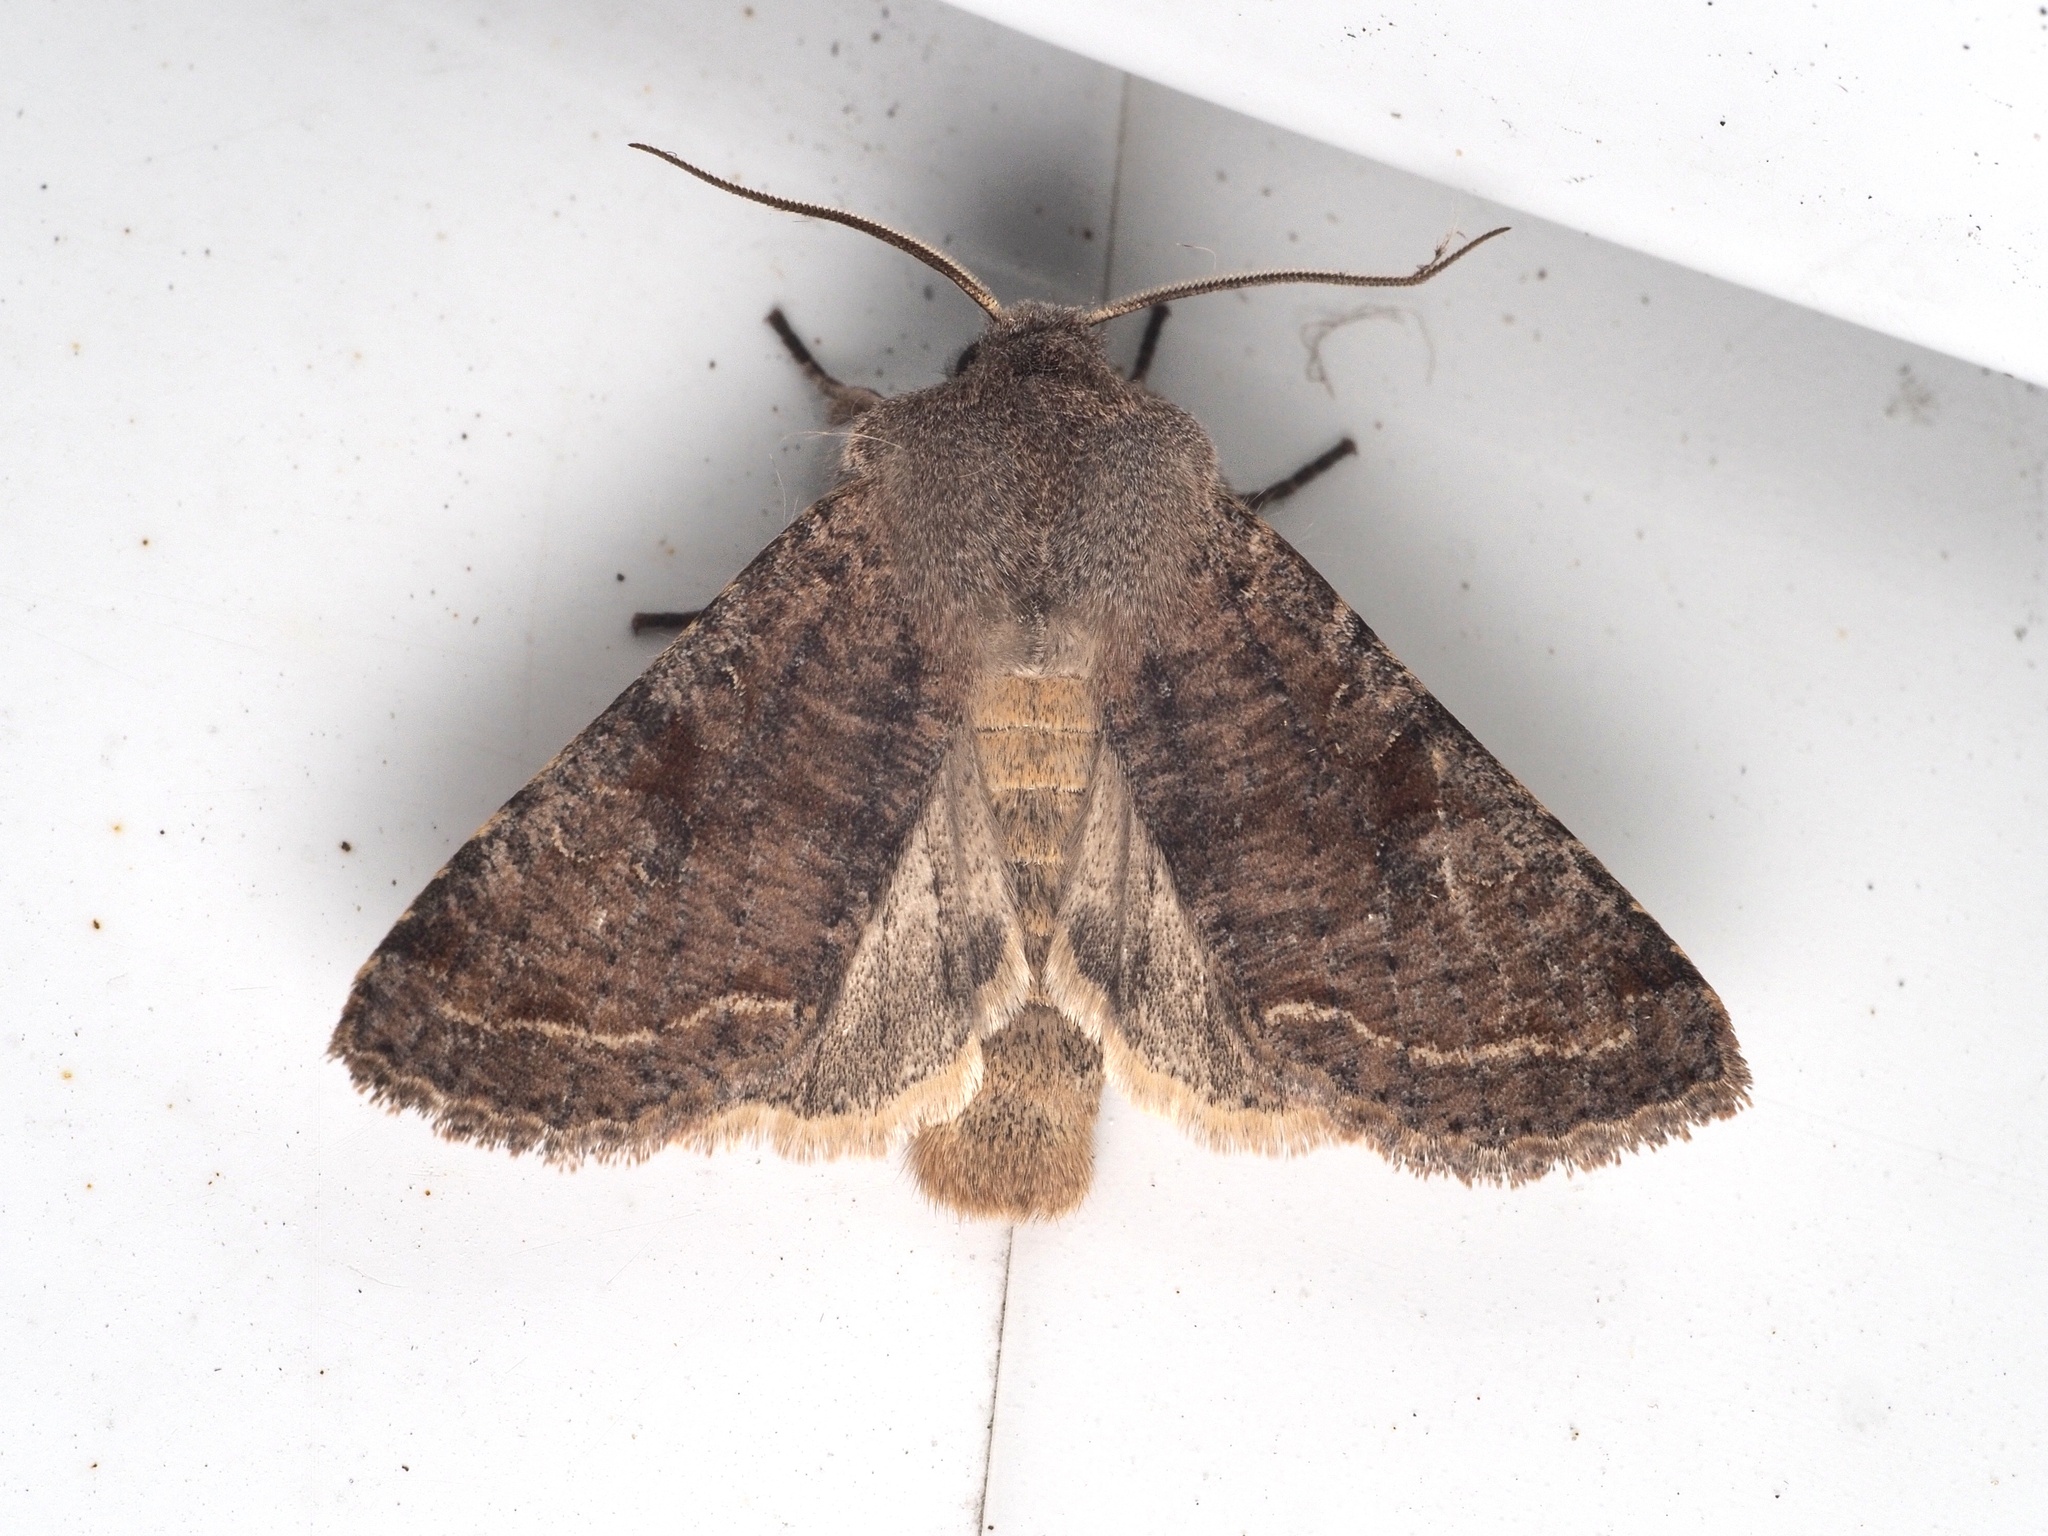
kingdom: Animalia
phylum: Arthropoda
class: Insecta
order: Lepidoptera
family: Noctuidae
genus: Orthosia
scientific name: Orthosia incerta
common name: Clouded drab
